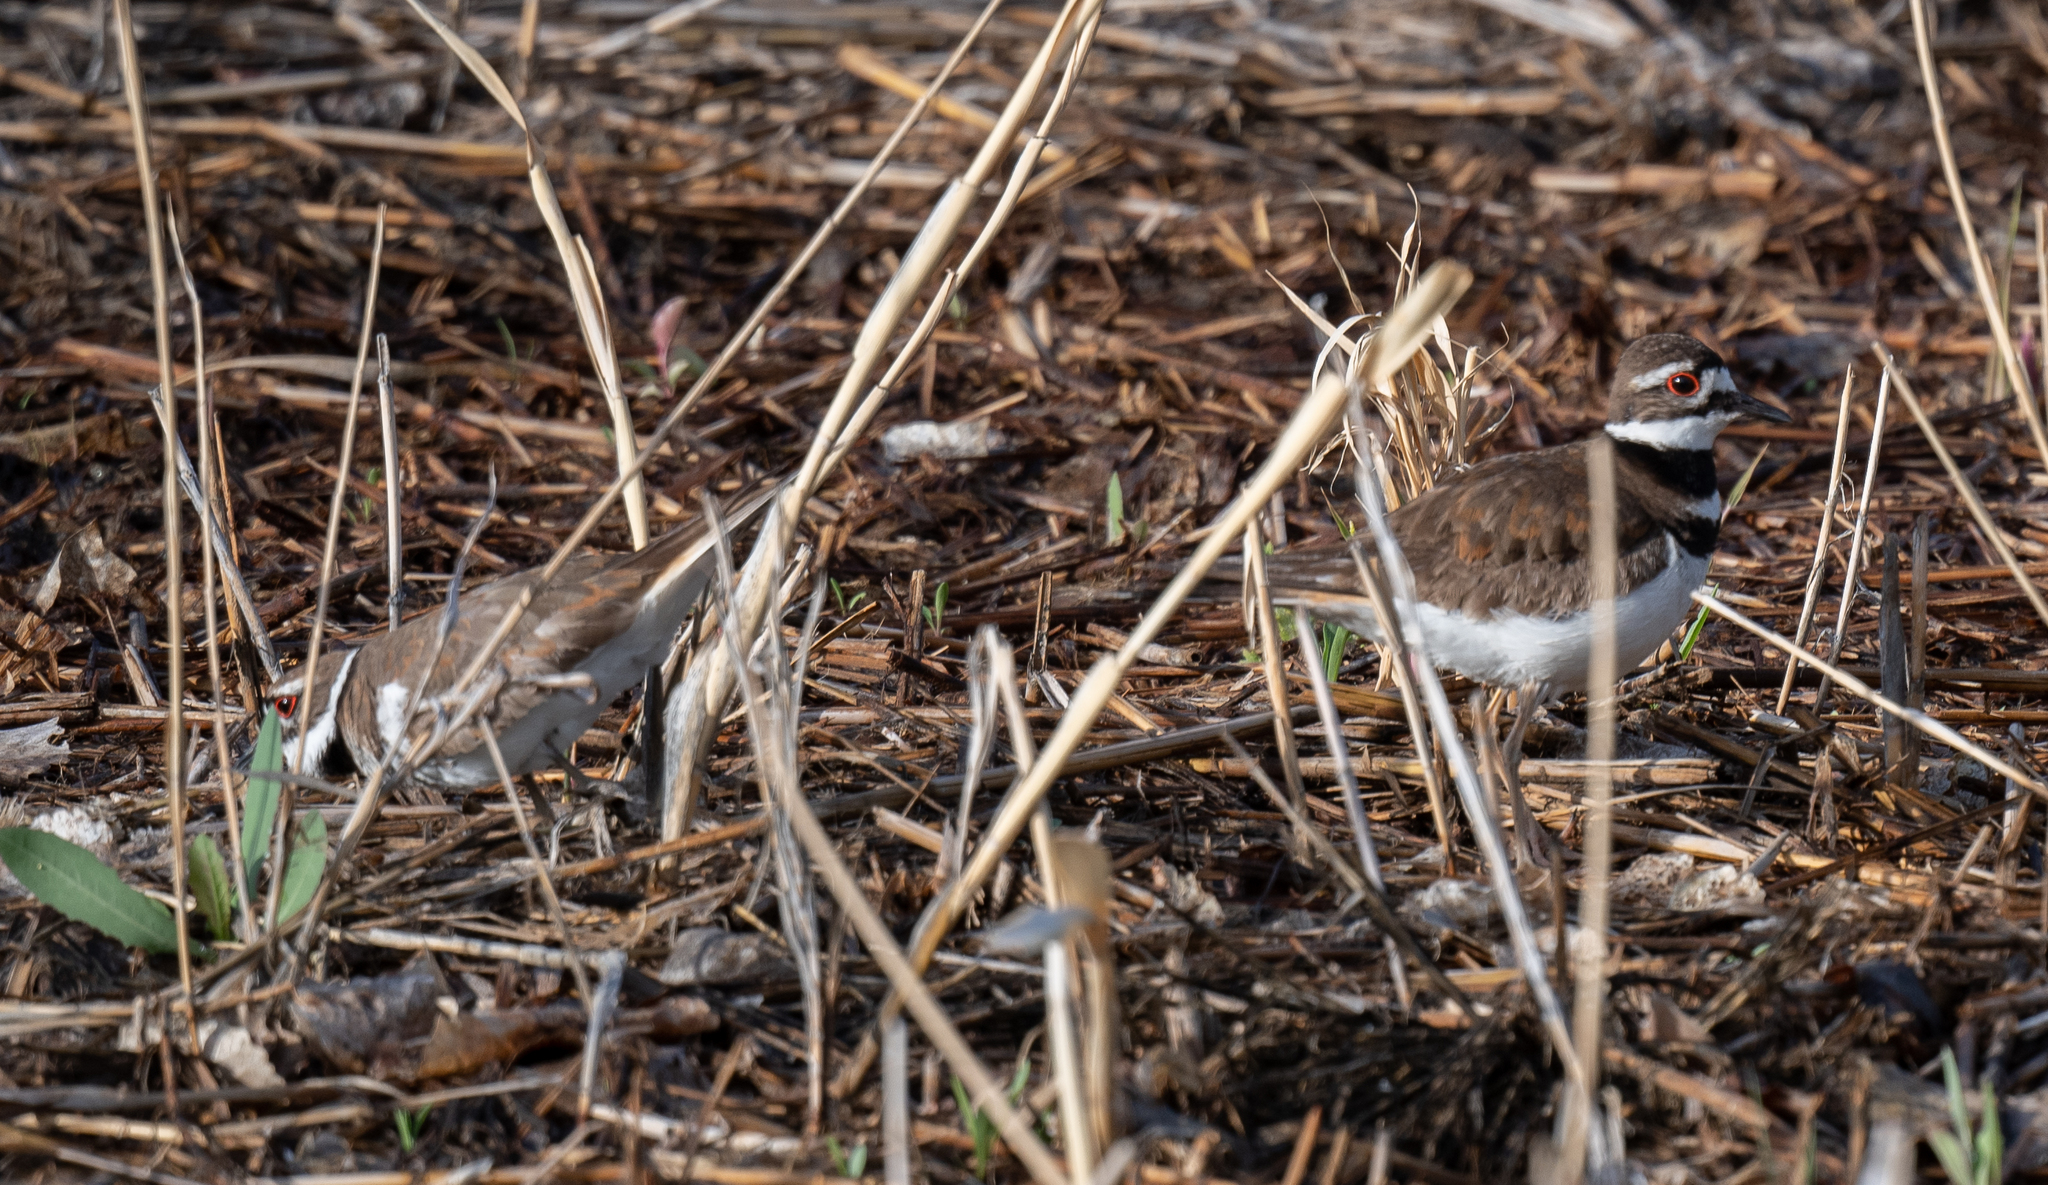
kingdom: Animalia
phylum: Chordata
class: Aves
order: Charadriiformes
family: Charadriidae
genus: Charadrius
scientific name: Charadrius vociferus
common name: Killdeer
